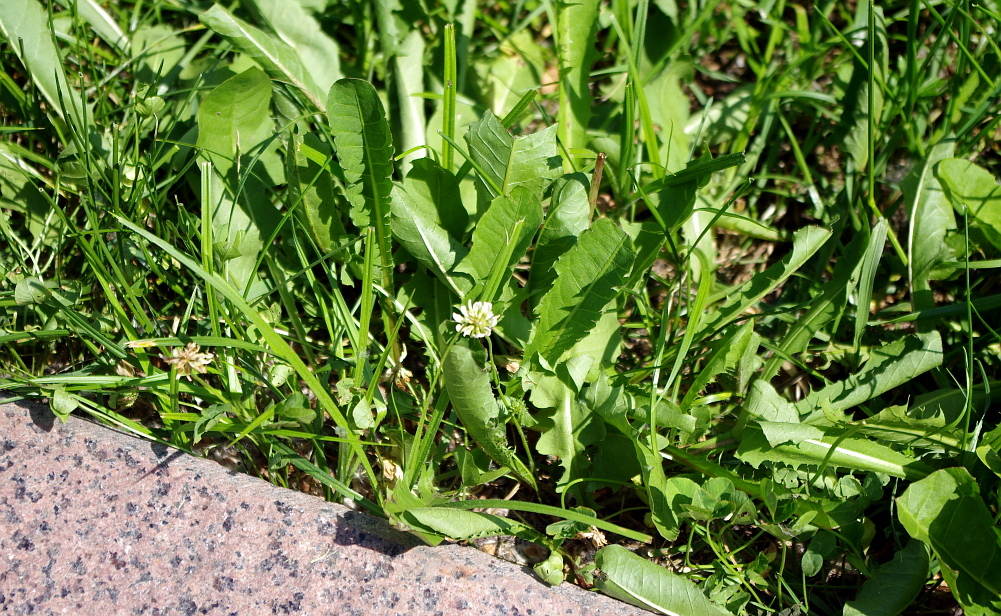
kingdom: Plantae
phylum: Tracheophyta
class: Magnoliopsida
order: Asterales
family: Asteraceae
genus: Taraxacum
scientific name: Taraxacum officinale
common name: Common dandelion
